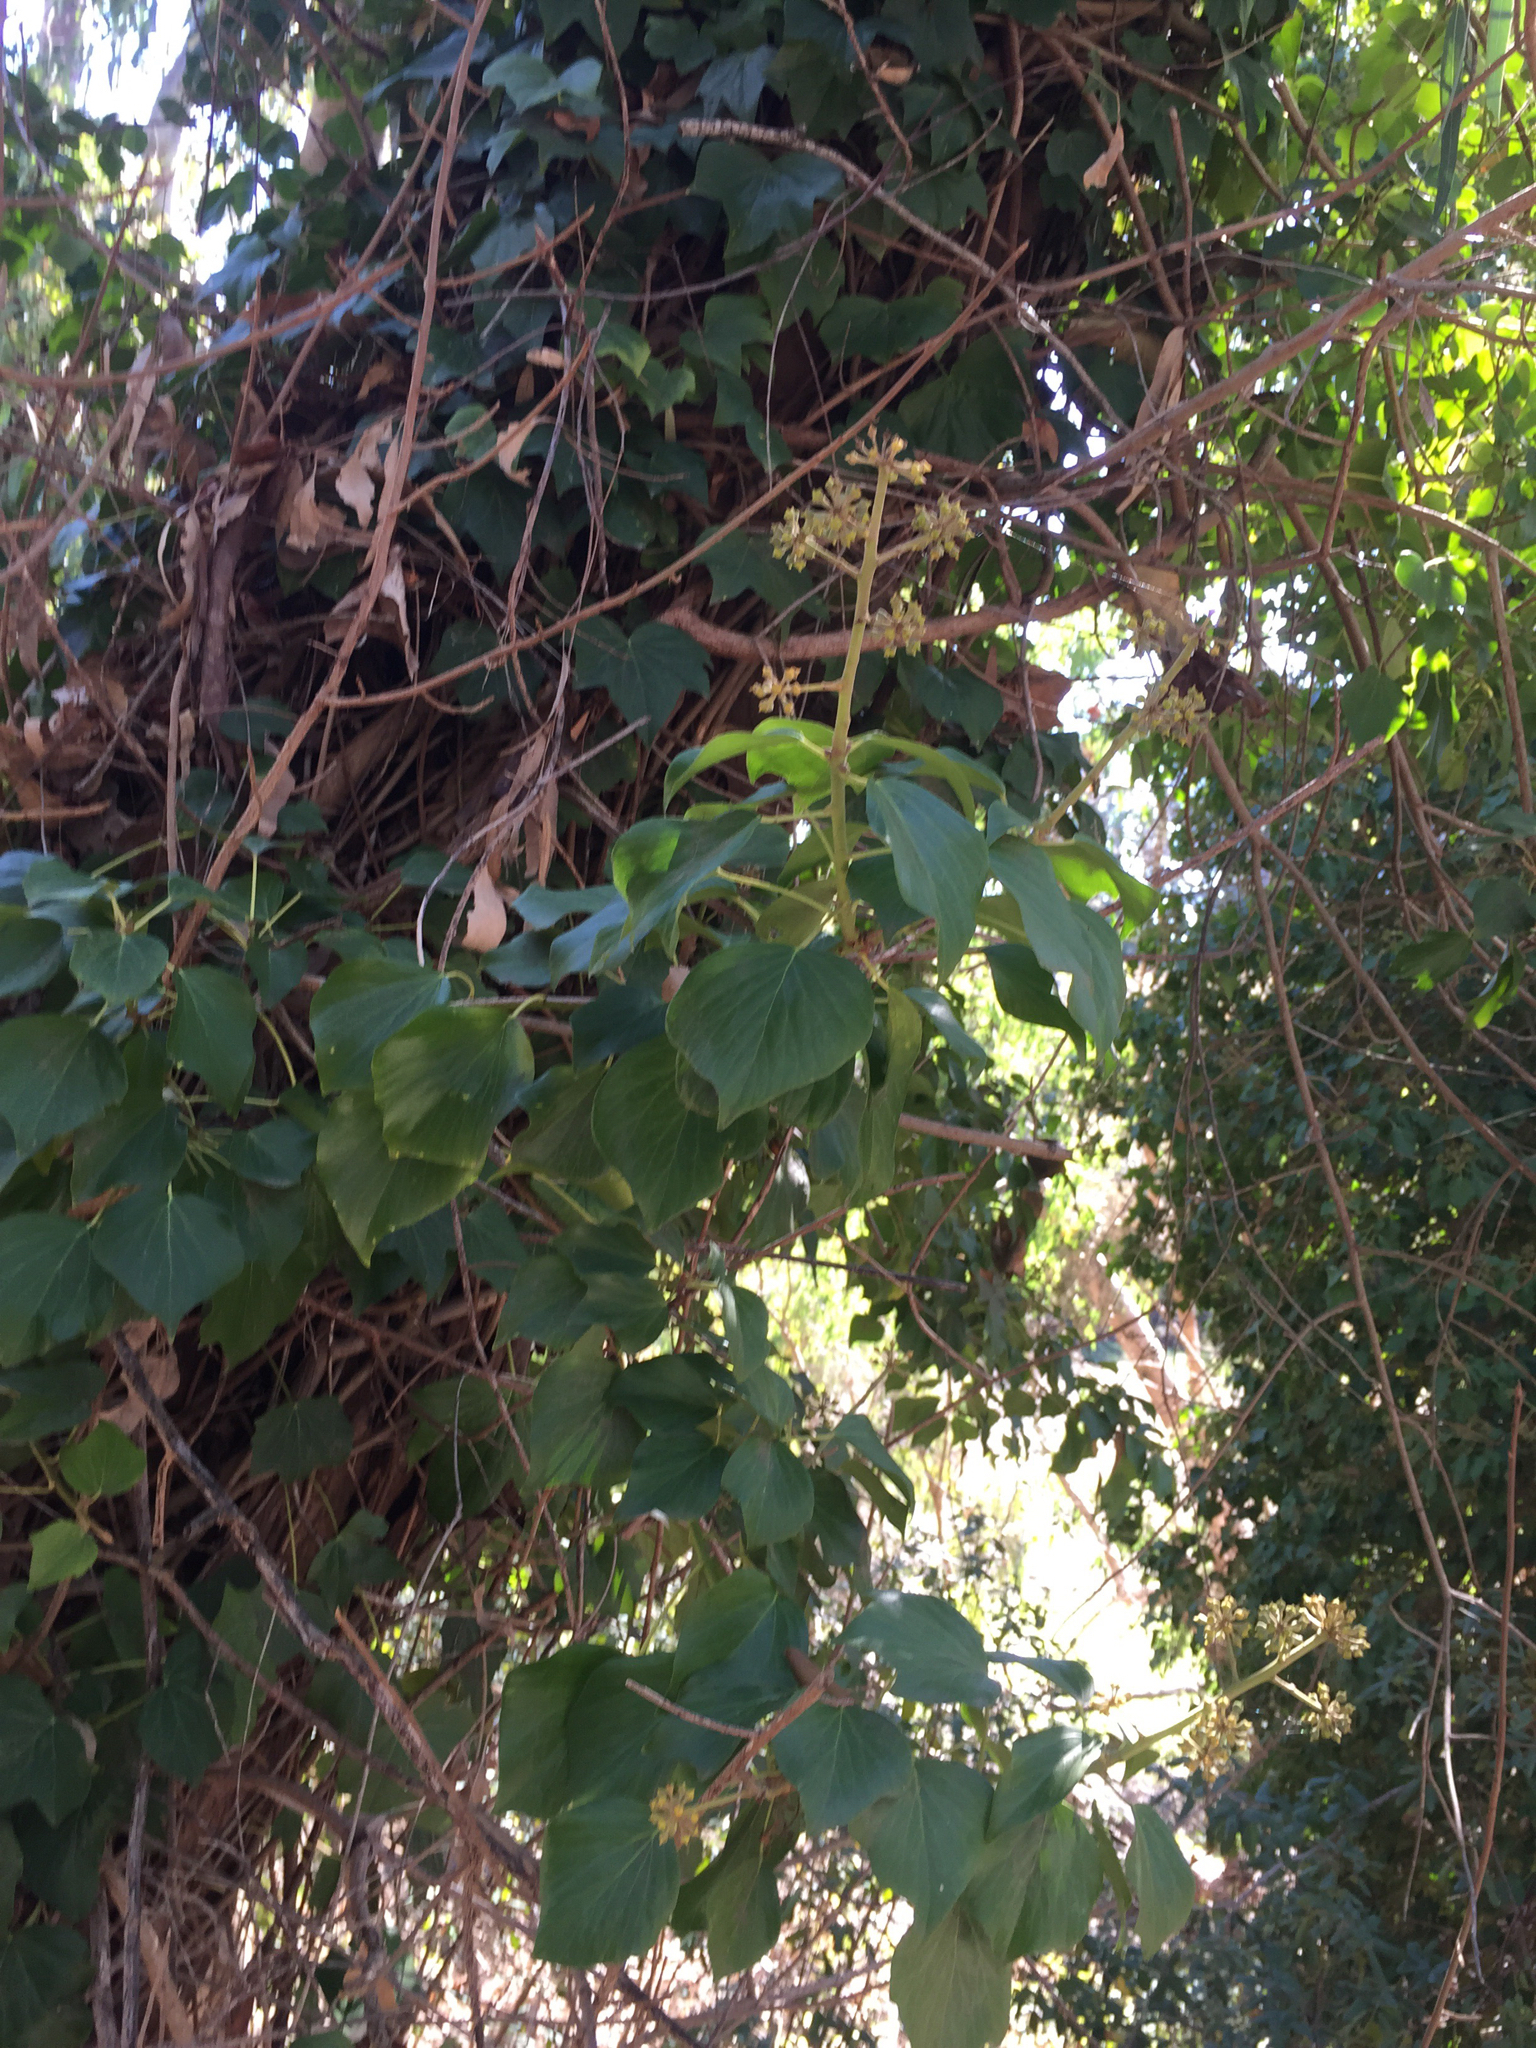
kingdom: Plantae
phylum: Tracheophyta
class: Magnoliopsida
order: Apiales
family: Araliaceae
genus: Hedera
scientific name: Hedera helix
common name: Ivy
